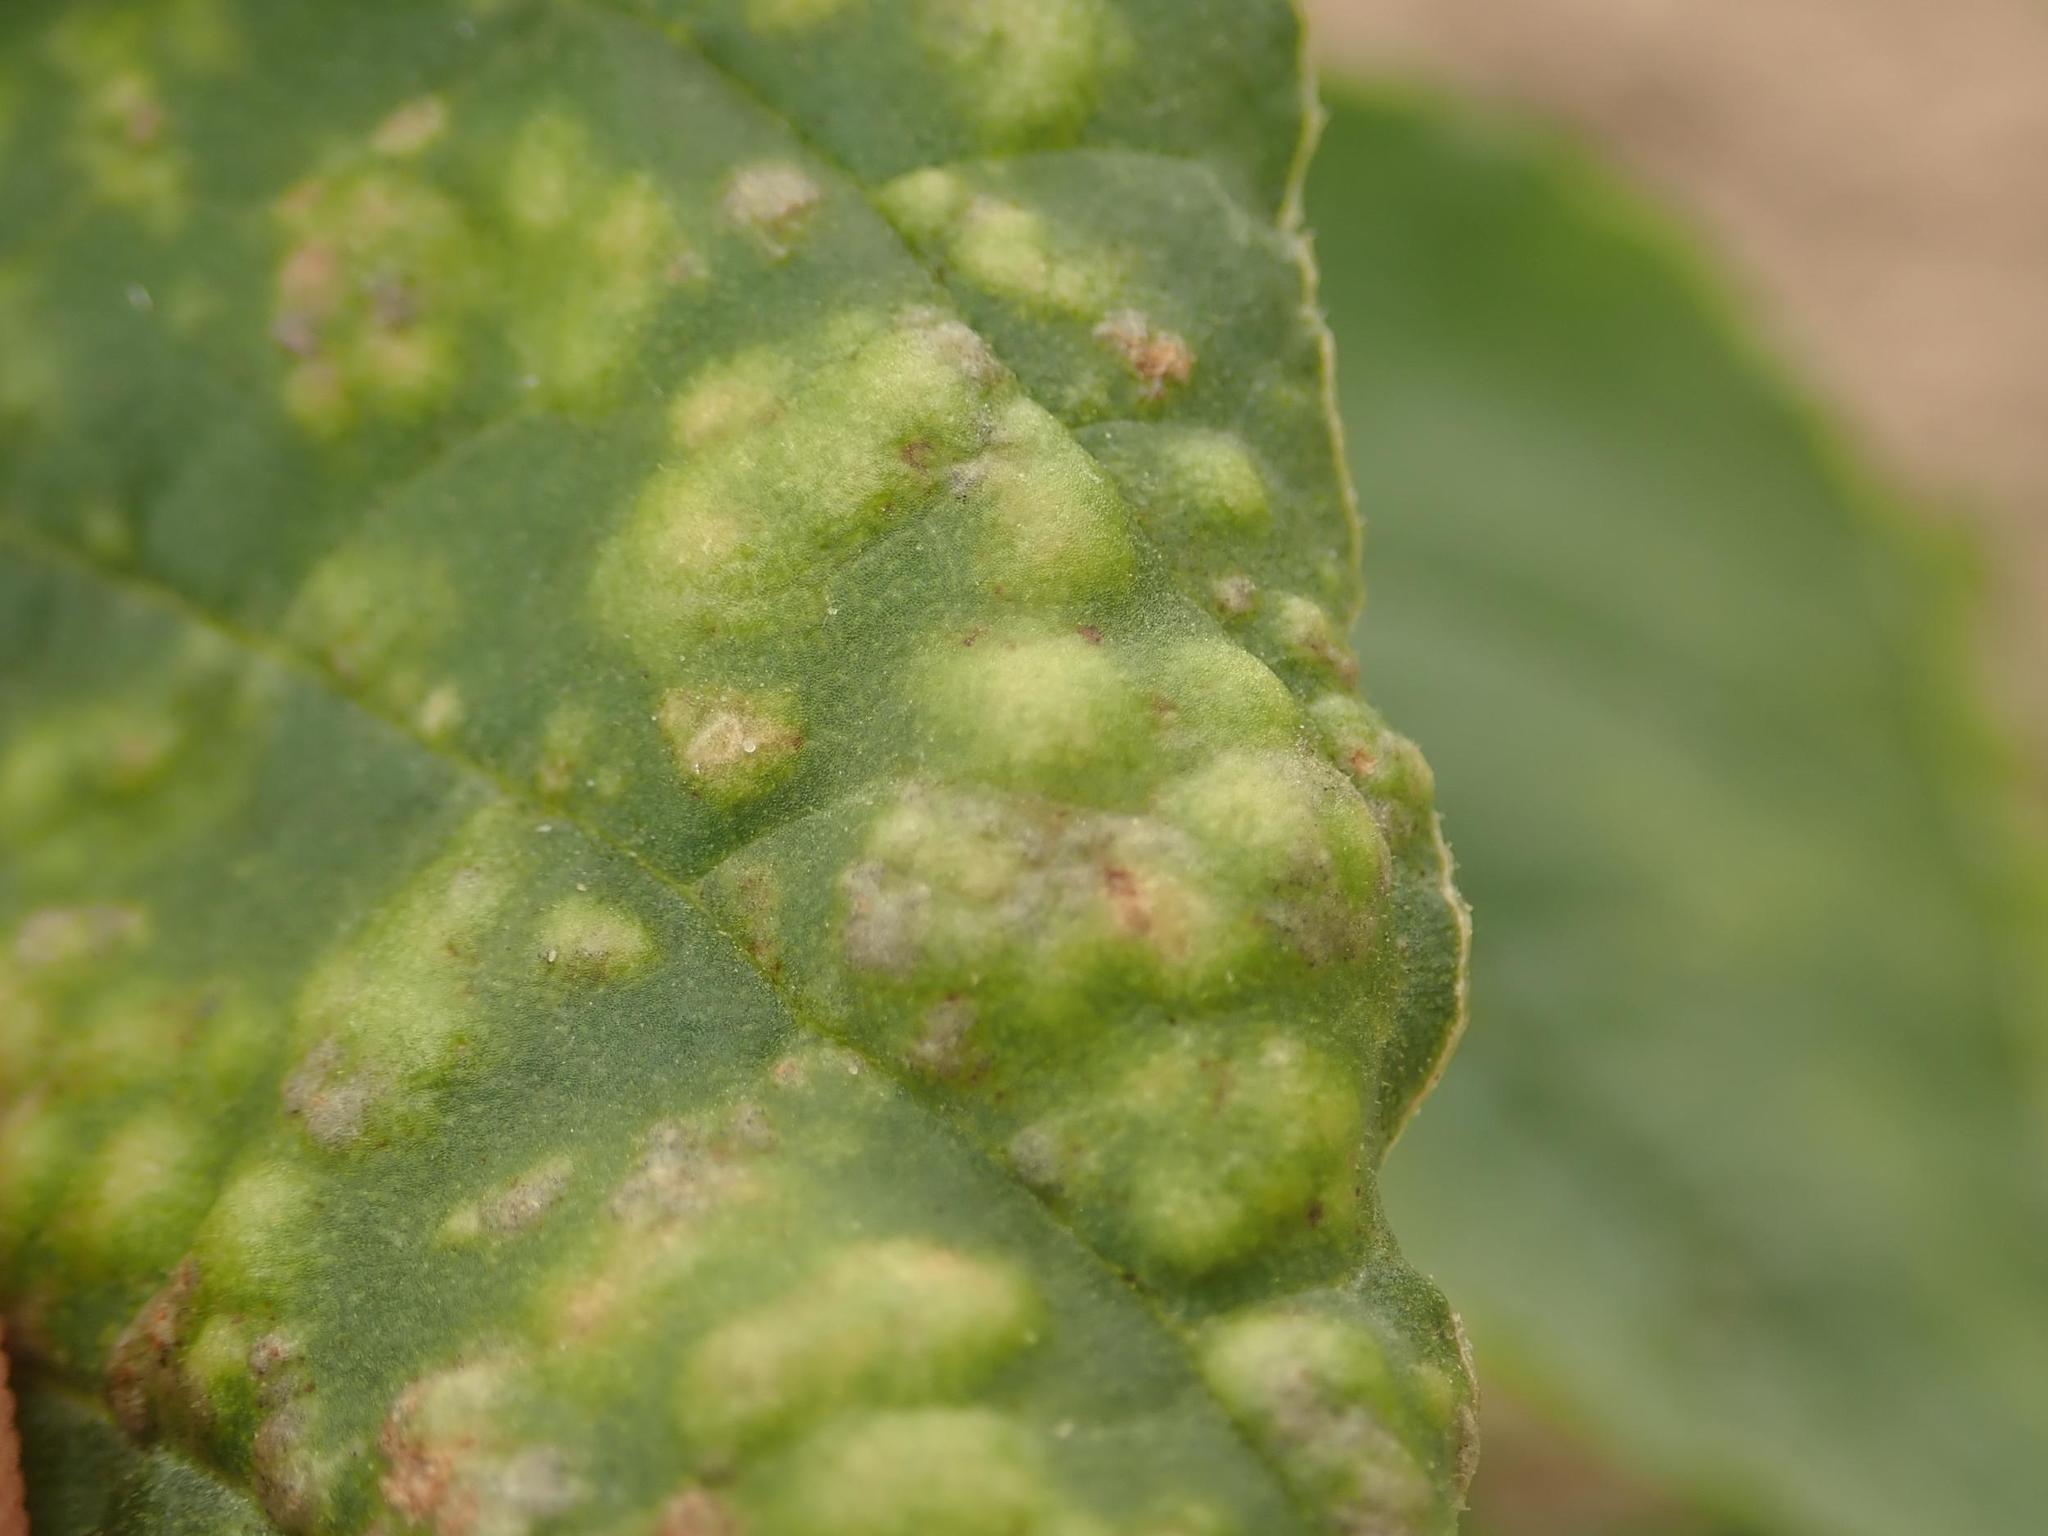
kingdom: Chromista
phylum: Oomycota
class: Peronosporea
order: Albuginales
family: Albuginaceae
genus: Wilsoniana
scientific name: Wilsoniana bliti
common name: White blister rust disease
